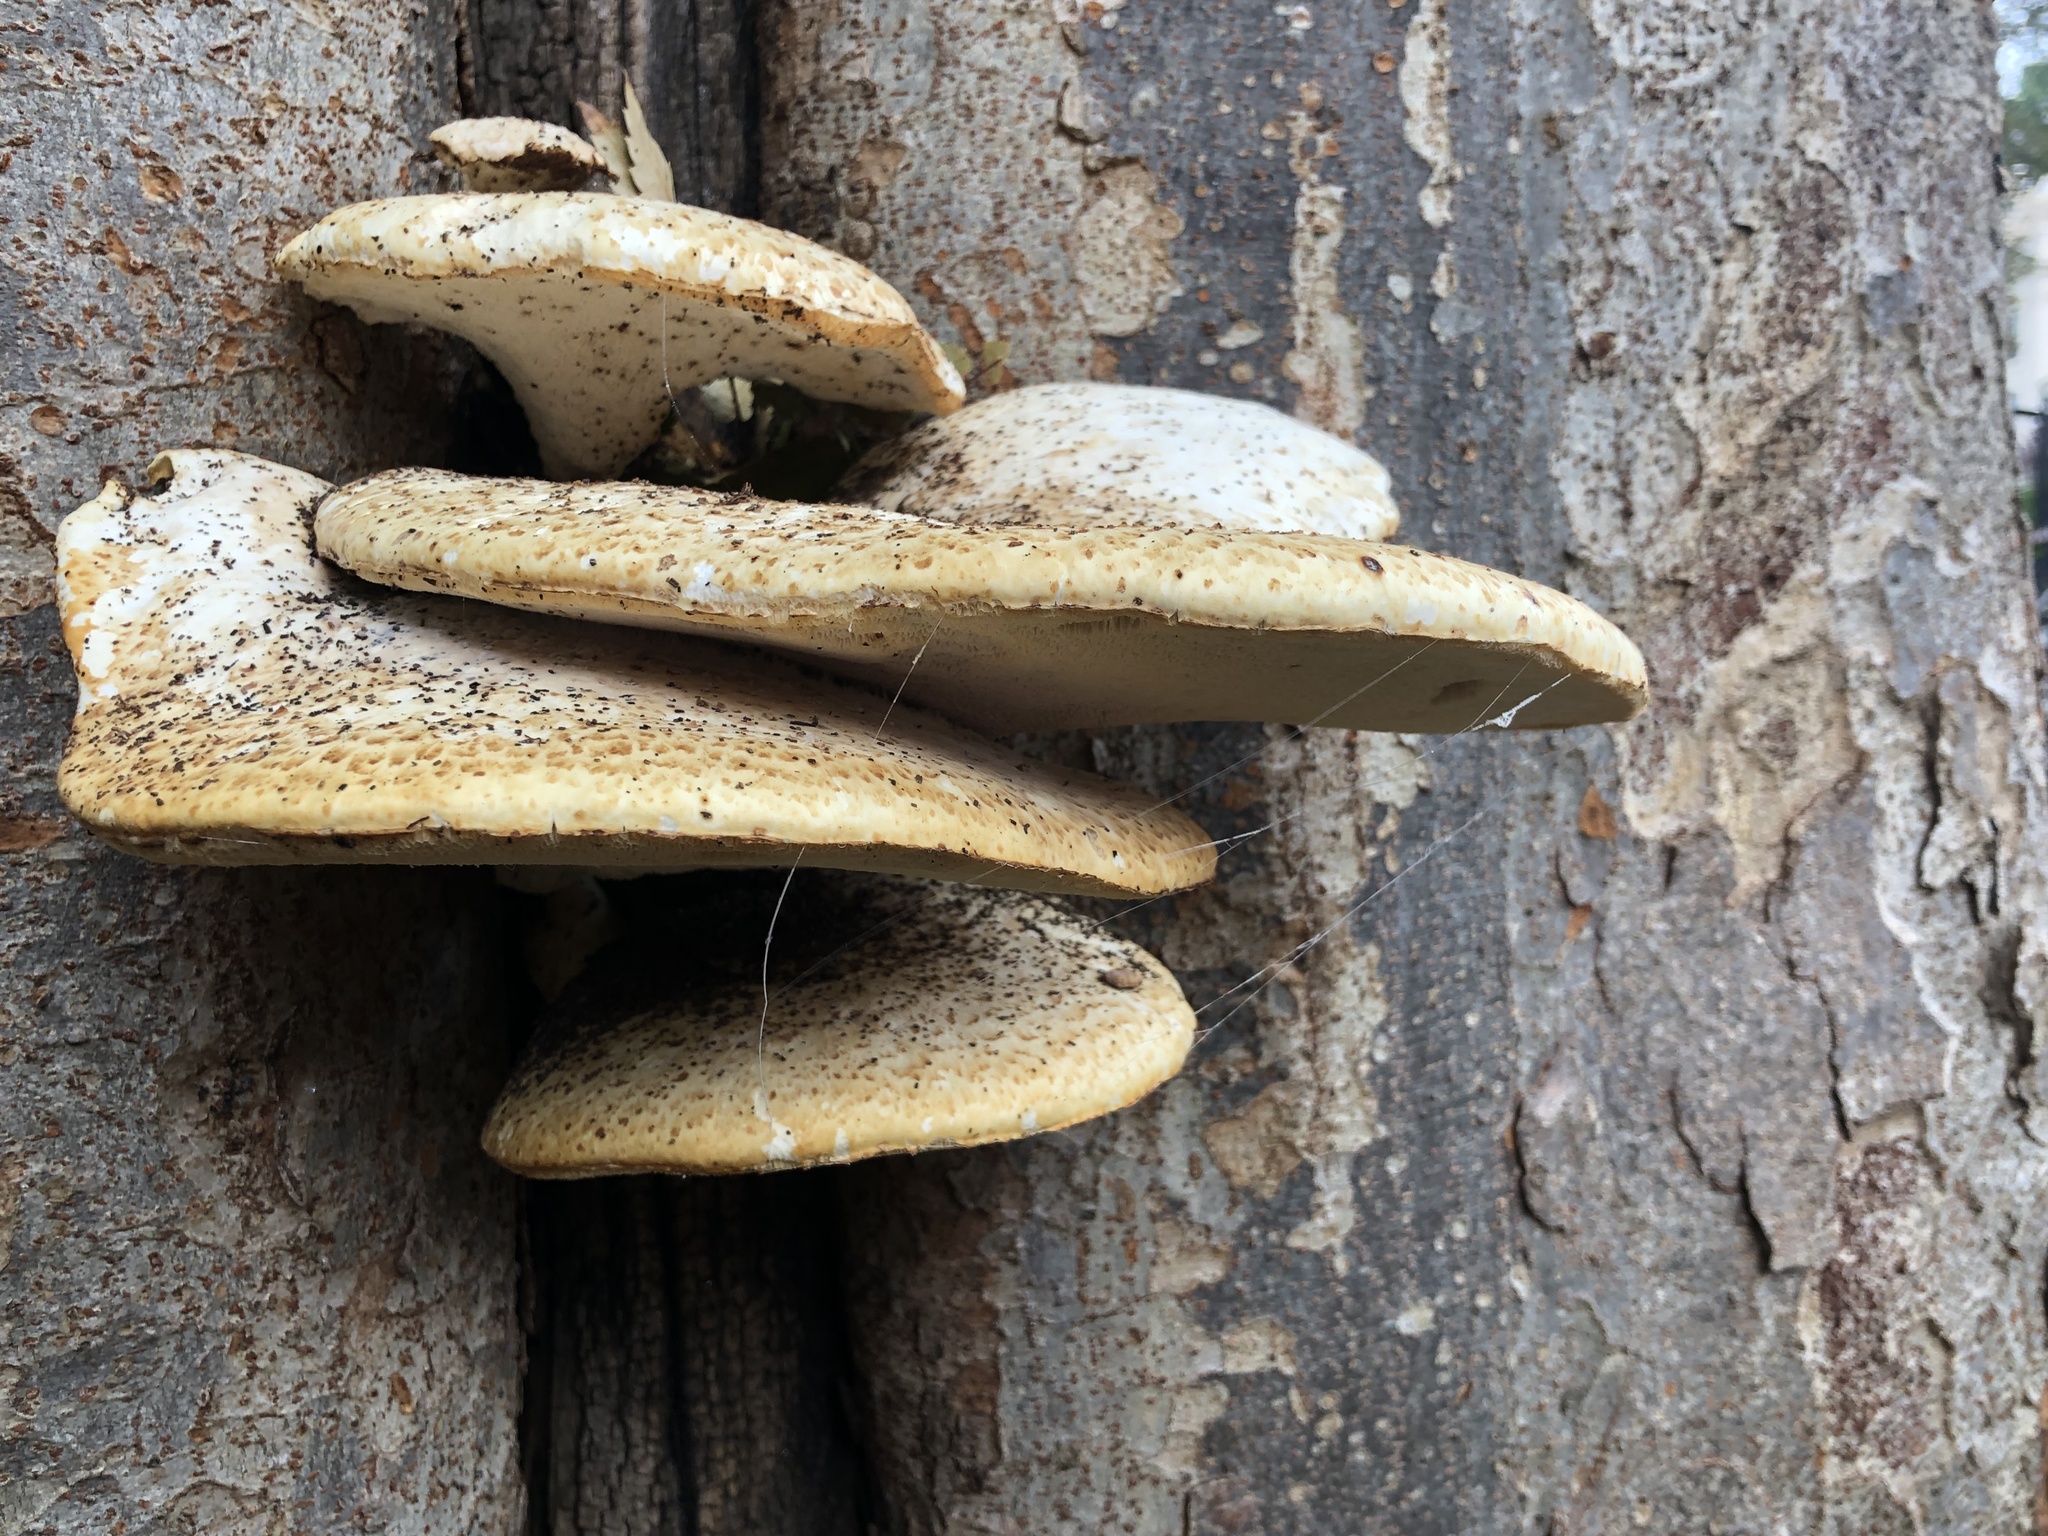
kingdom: Fungi
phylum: Basidiomycota
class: Agaricomycetes
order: Polyporales
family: Polyporaceae
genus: Cerioporus
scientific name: Cerioporus squamosus
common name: Dryad's saddle
